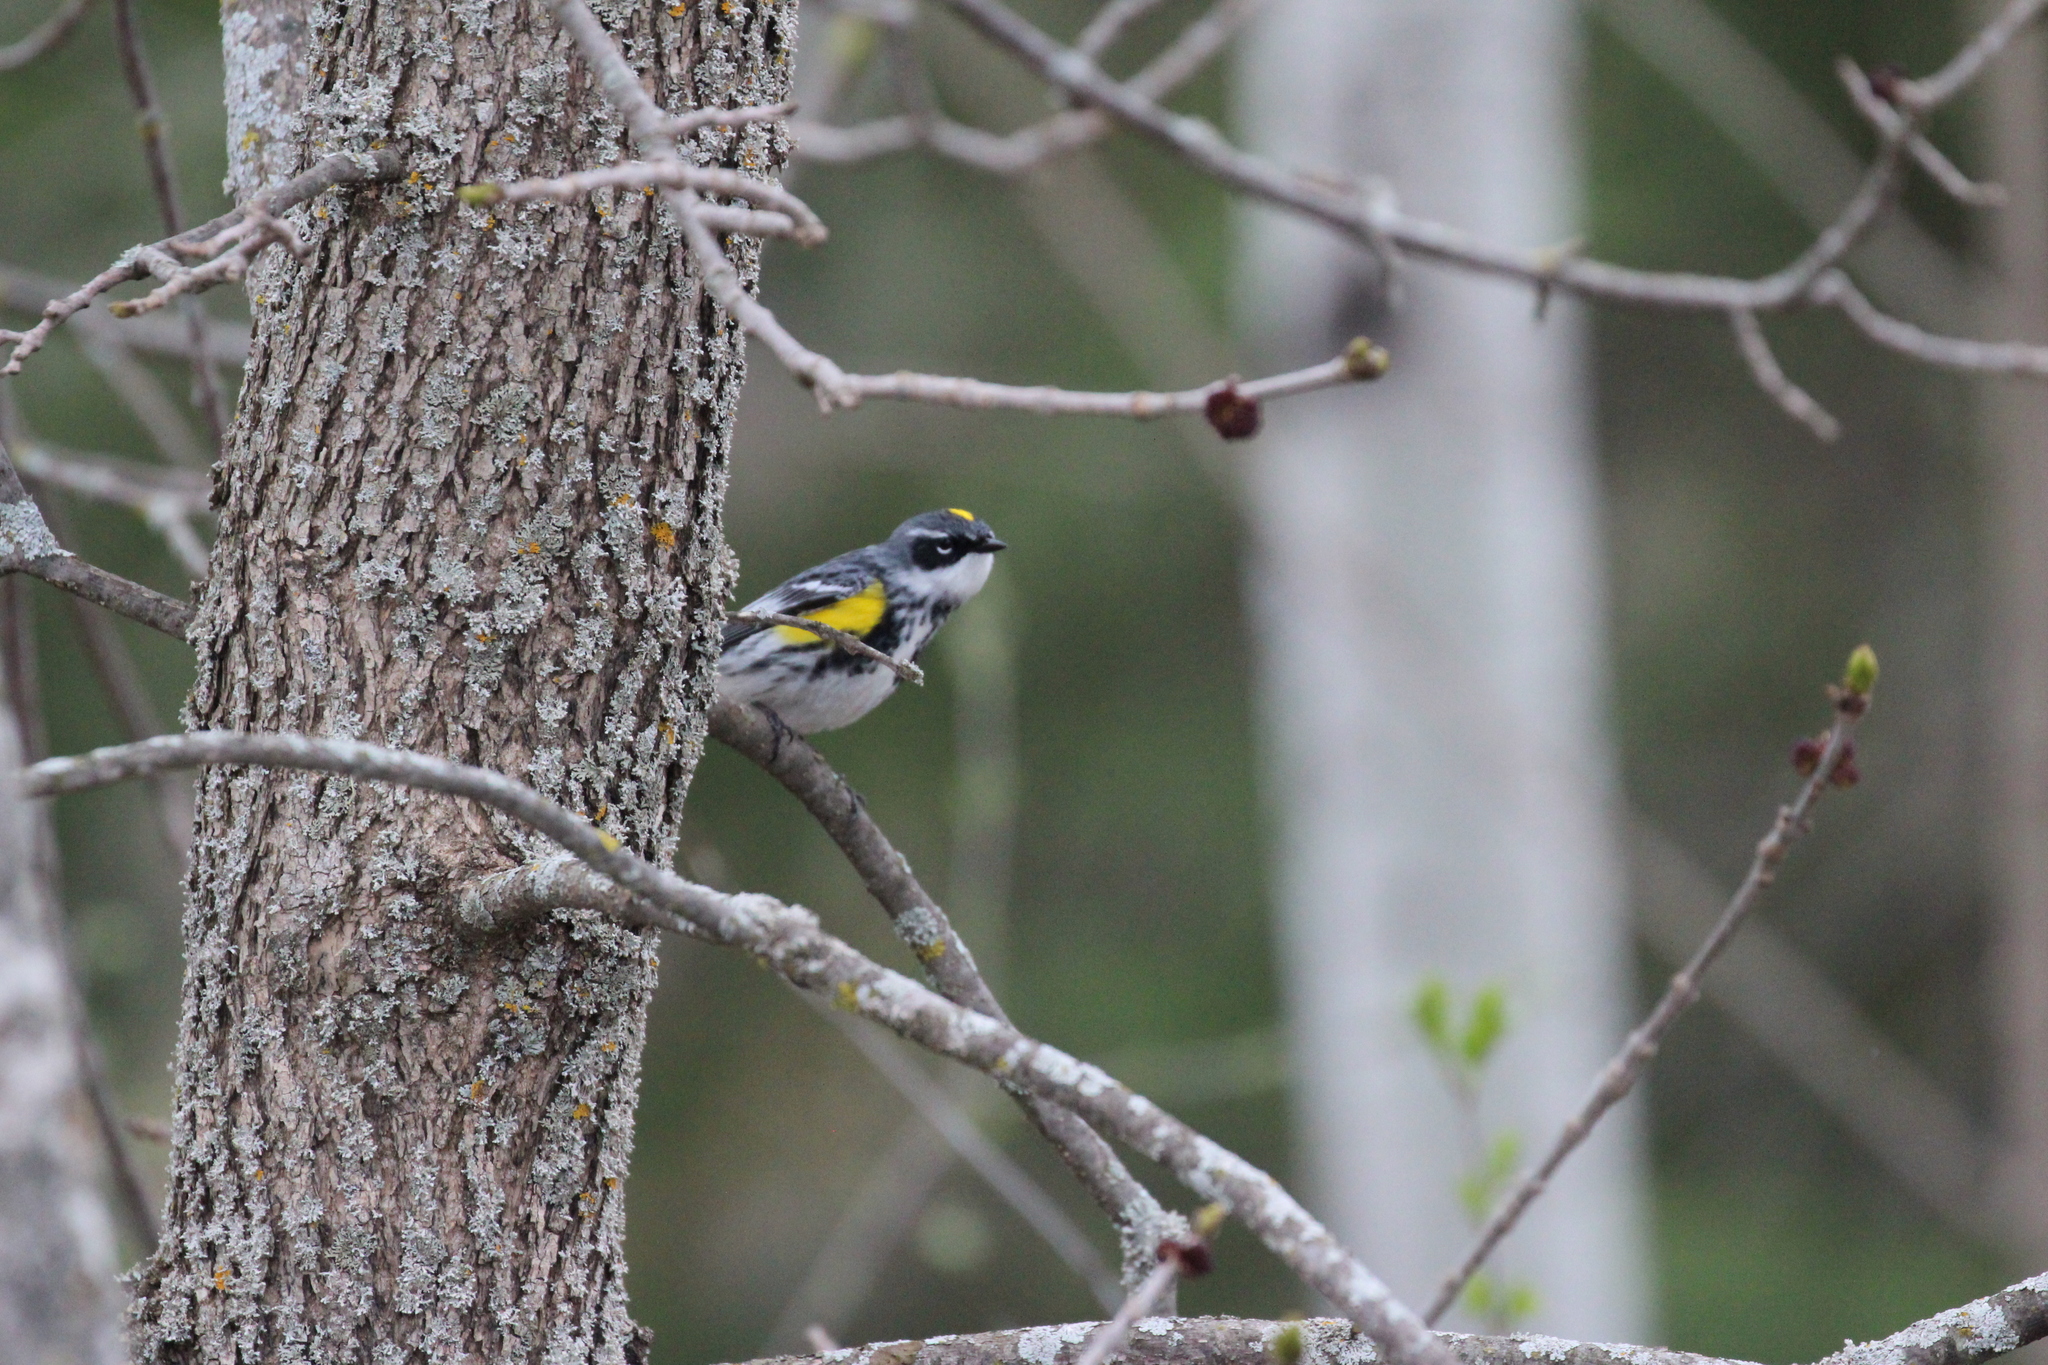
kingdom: Animalia
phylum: Chordata
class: Aves
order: Passeriformes
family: Parulidae
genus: Setophaga
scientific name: Setophaga coronata
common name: Myrtle warbler
